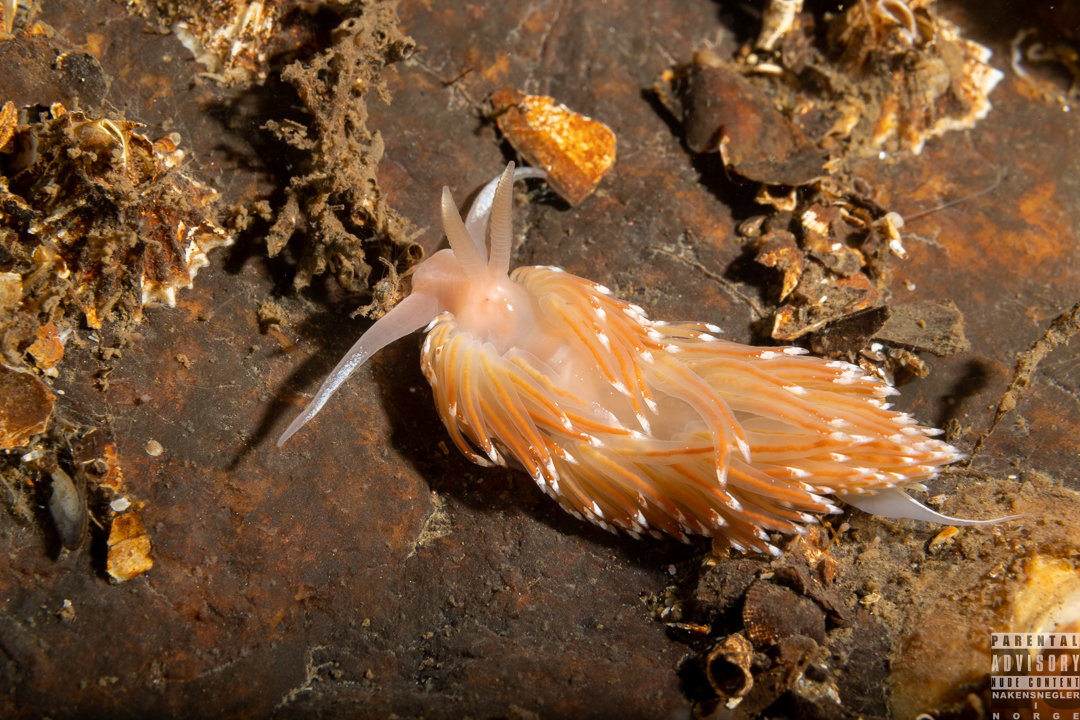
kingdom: Animalia
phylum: Mollusca
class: Gastropoda
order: Nudibranchia
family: Facelinidae
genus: Facelina
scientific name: Facelina bostoniensis
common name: Boston facelina
